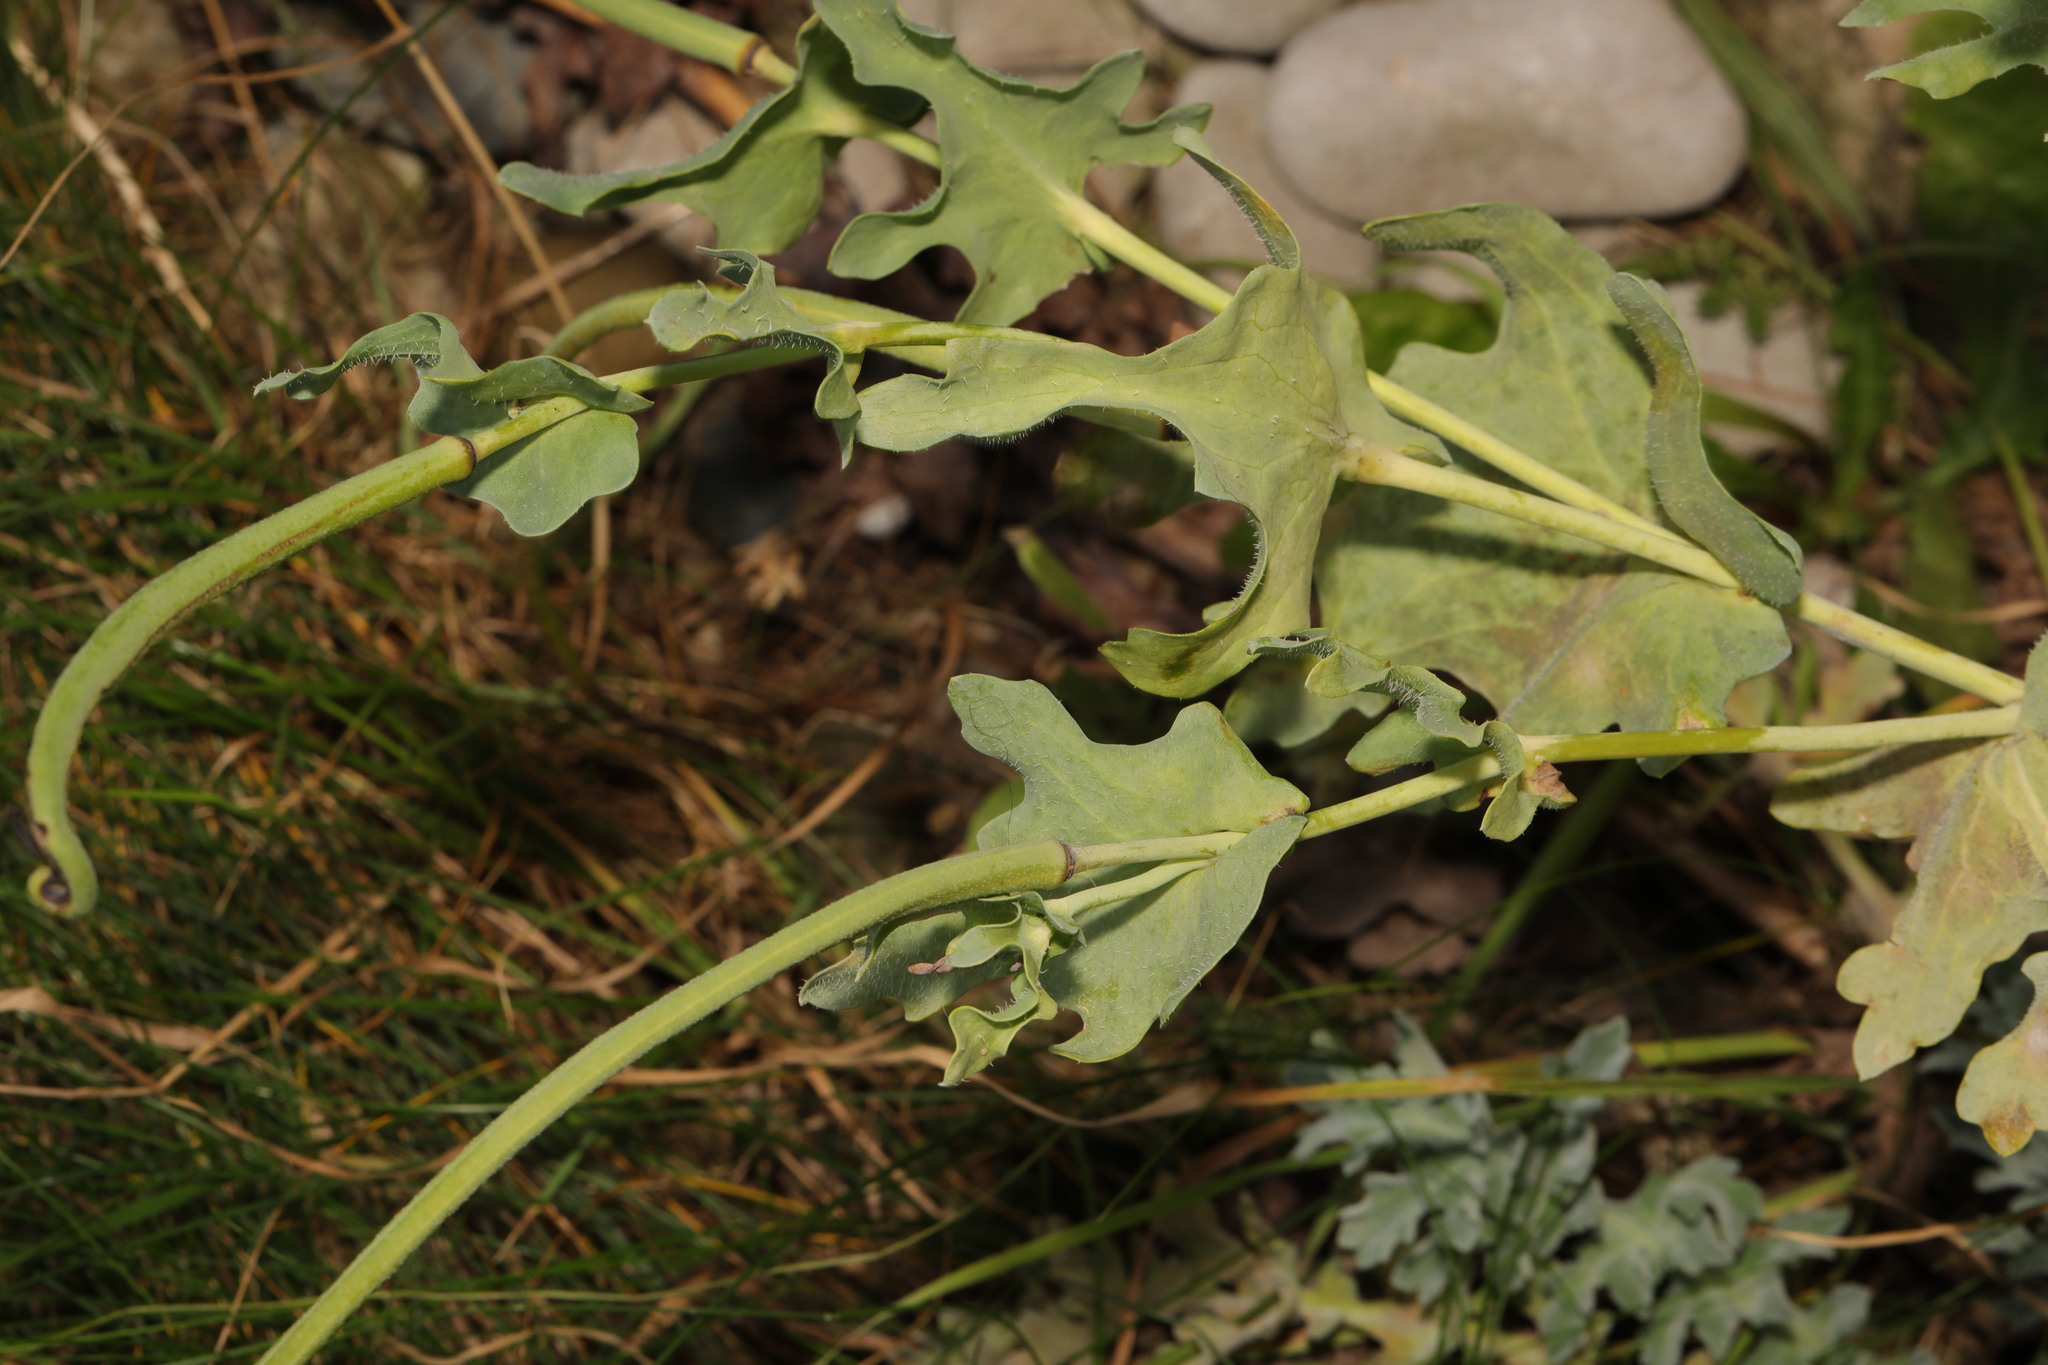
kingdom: Plantae
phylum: Tracheophyta
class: Magnoliopsida
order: Ranunculales
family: Papaveraceae
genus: Glaucium
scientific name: Glaucium flavum
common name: Yellow horned-poppy
